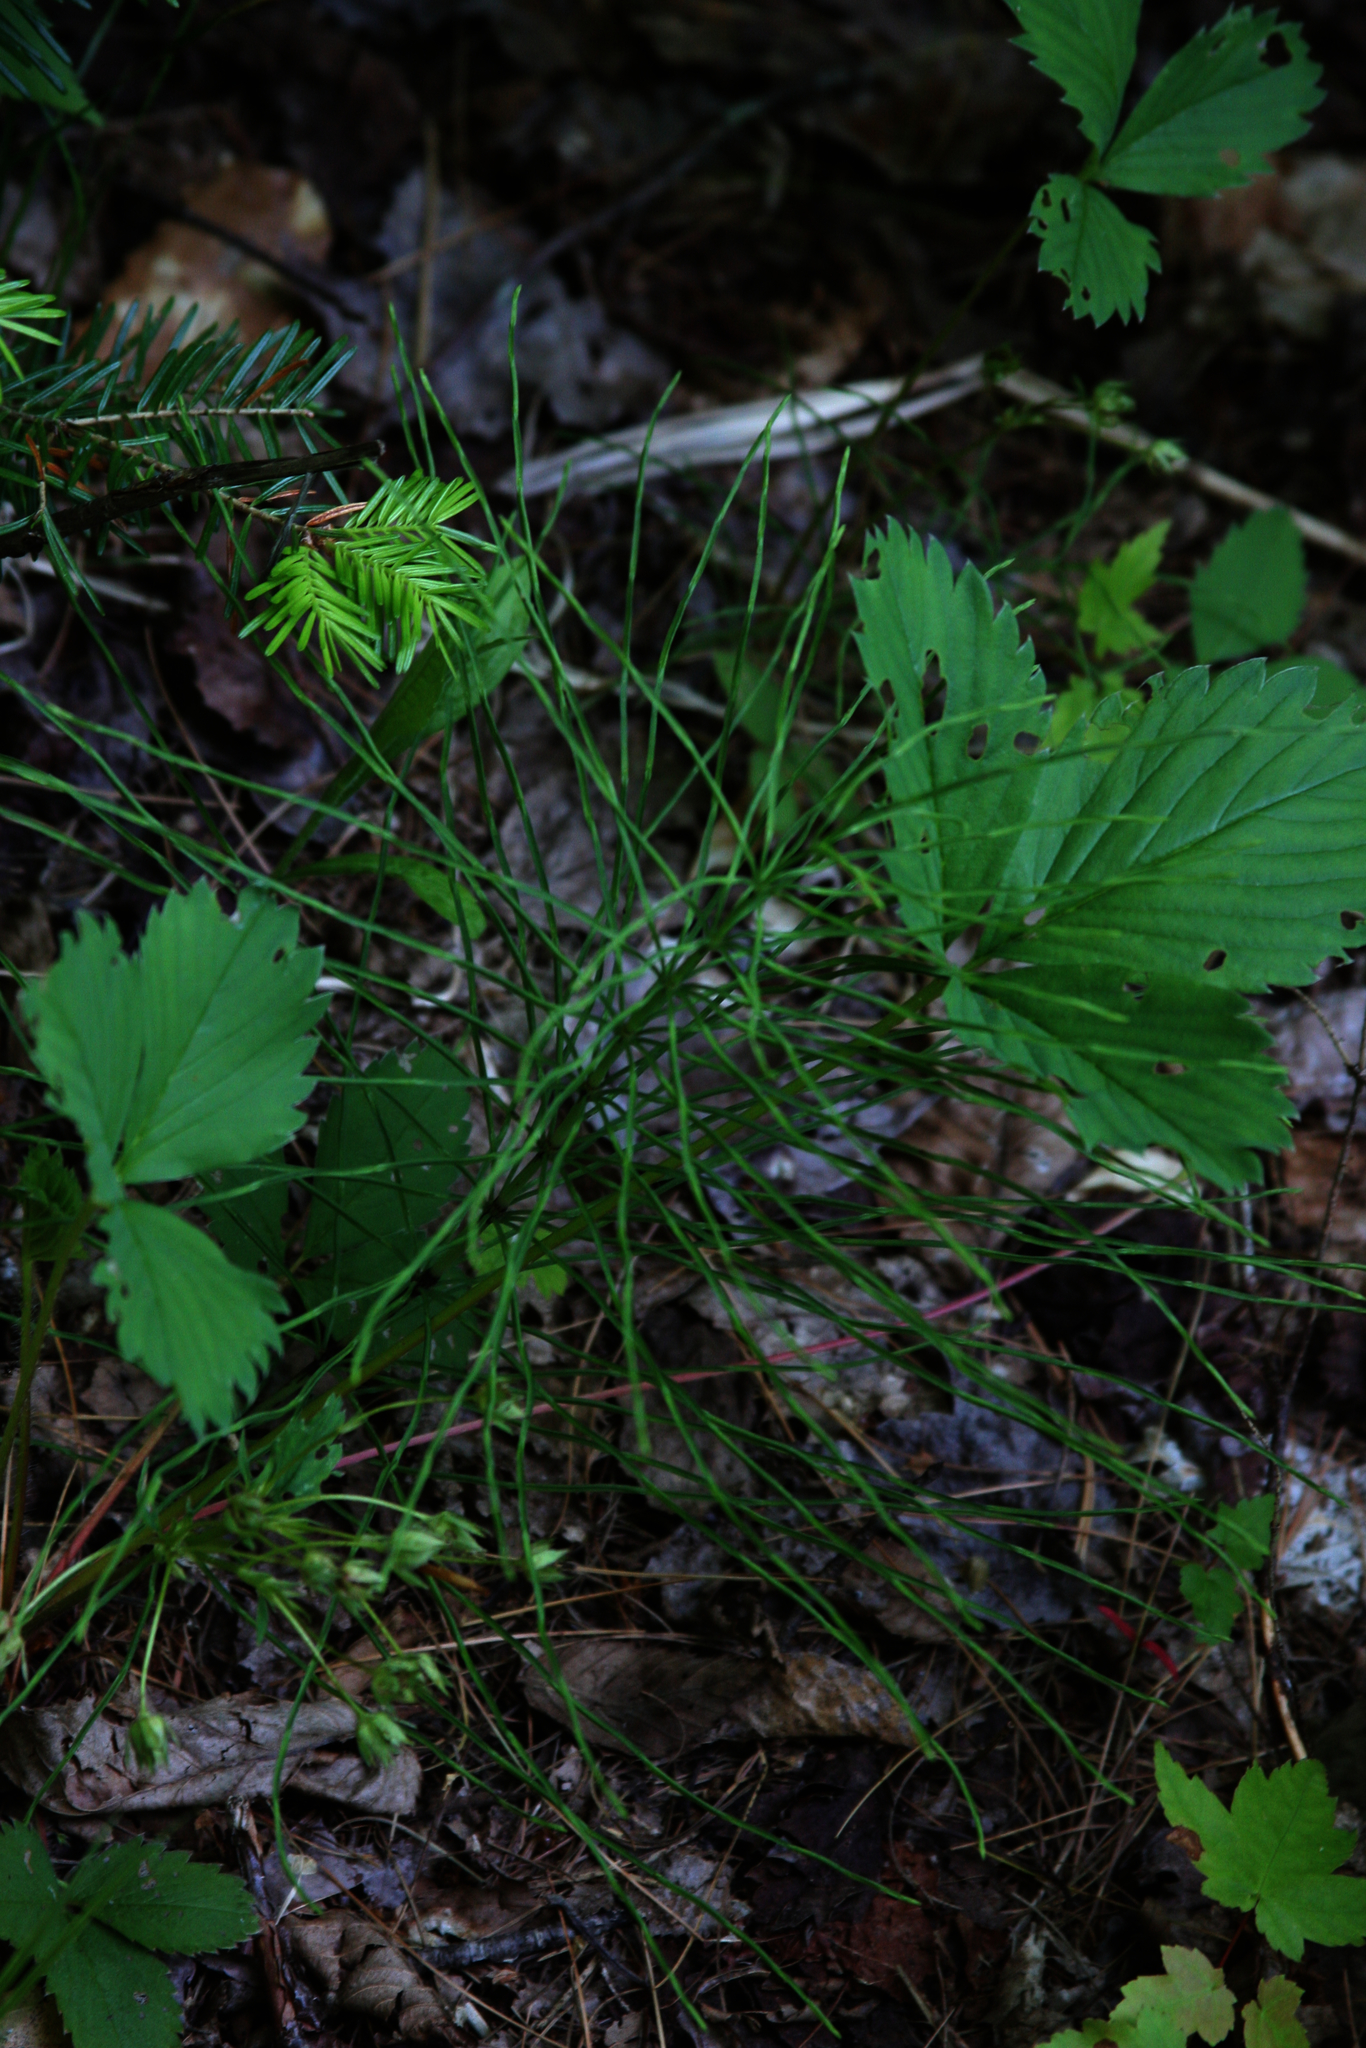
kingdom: Plantae
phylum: Tracheophyta
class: Polypodiopsida
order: Equisetales
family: Equisetaceae
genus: Equisetum
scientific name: Equisetum arvense
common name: Field horsetail
